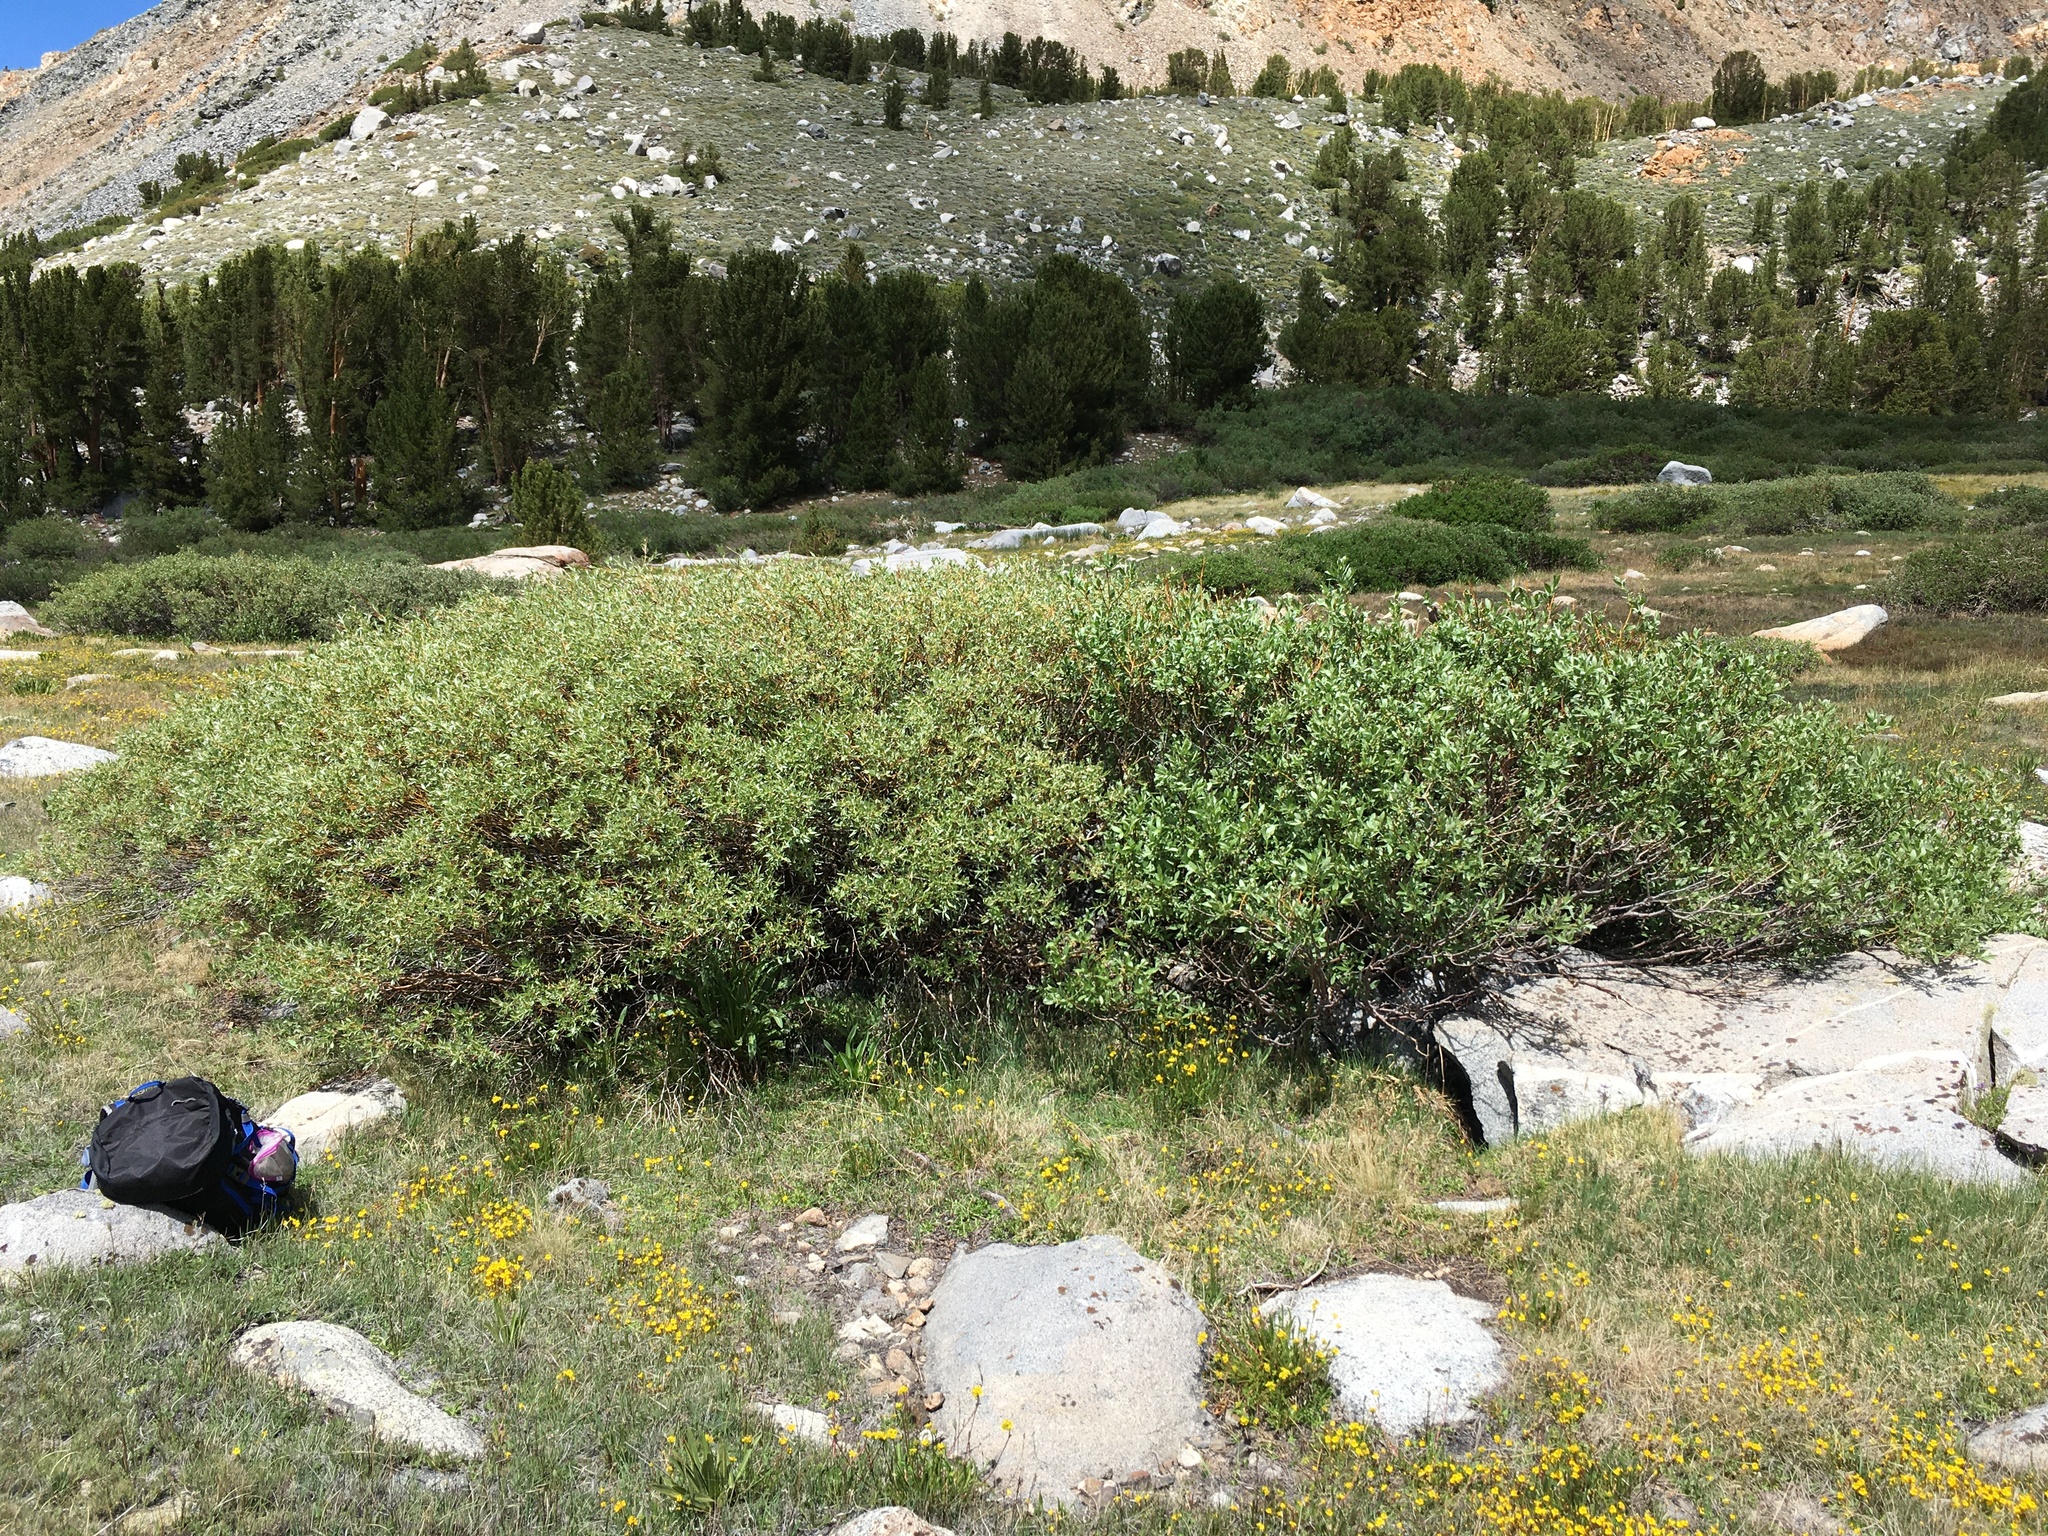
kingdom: Plantae
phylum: Tracheophyta
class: Magnoliopsida
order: Malpighiales
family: Salicaceae
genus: Salix
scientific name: Salix geyeriana
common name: Geyer's willow
